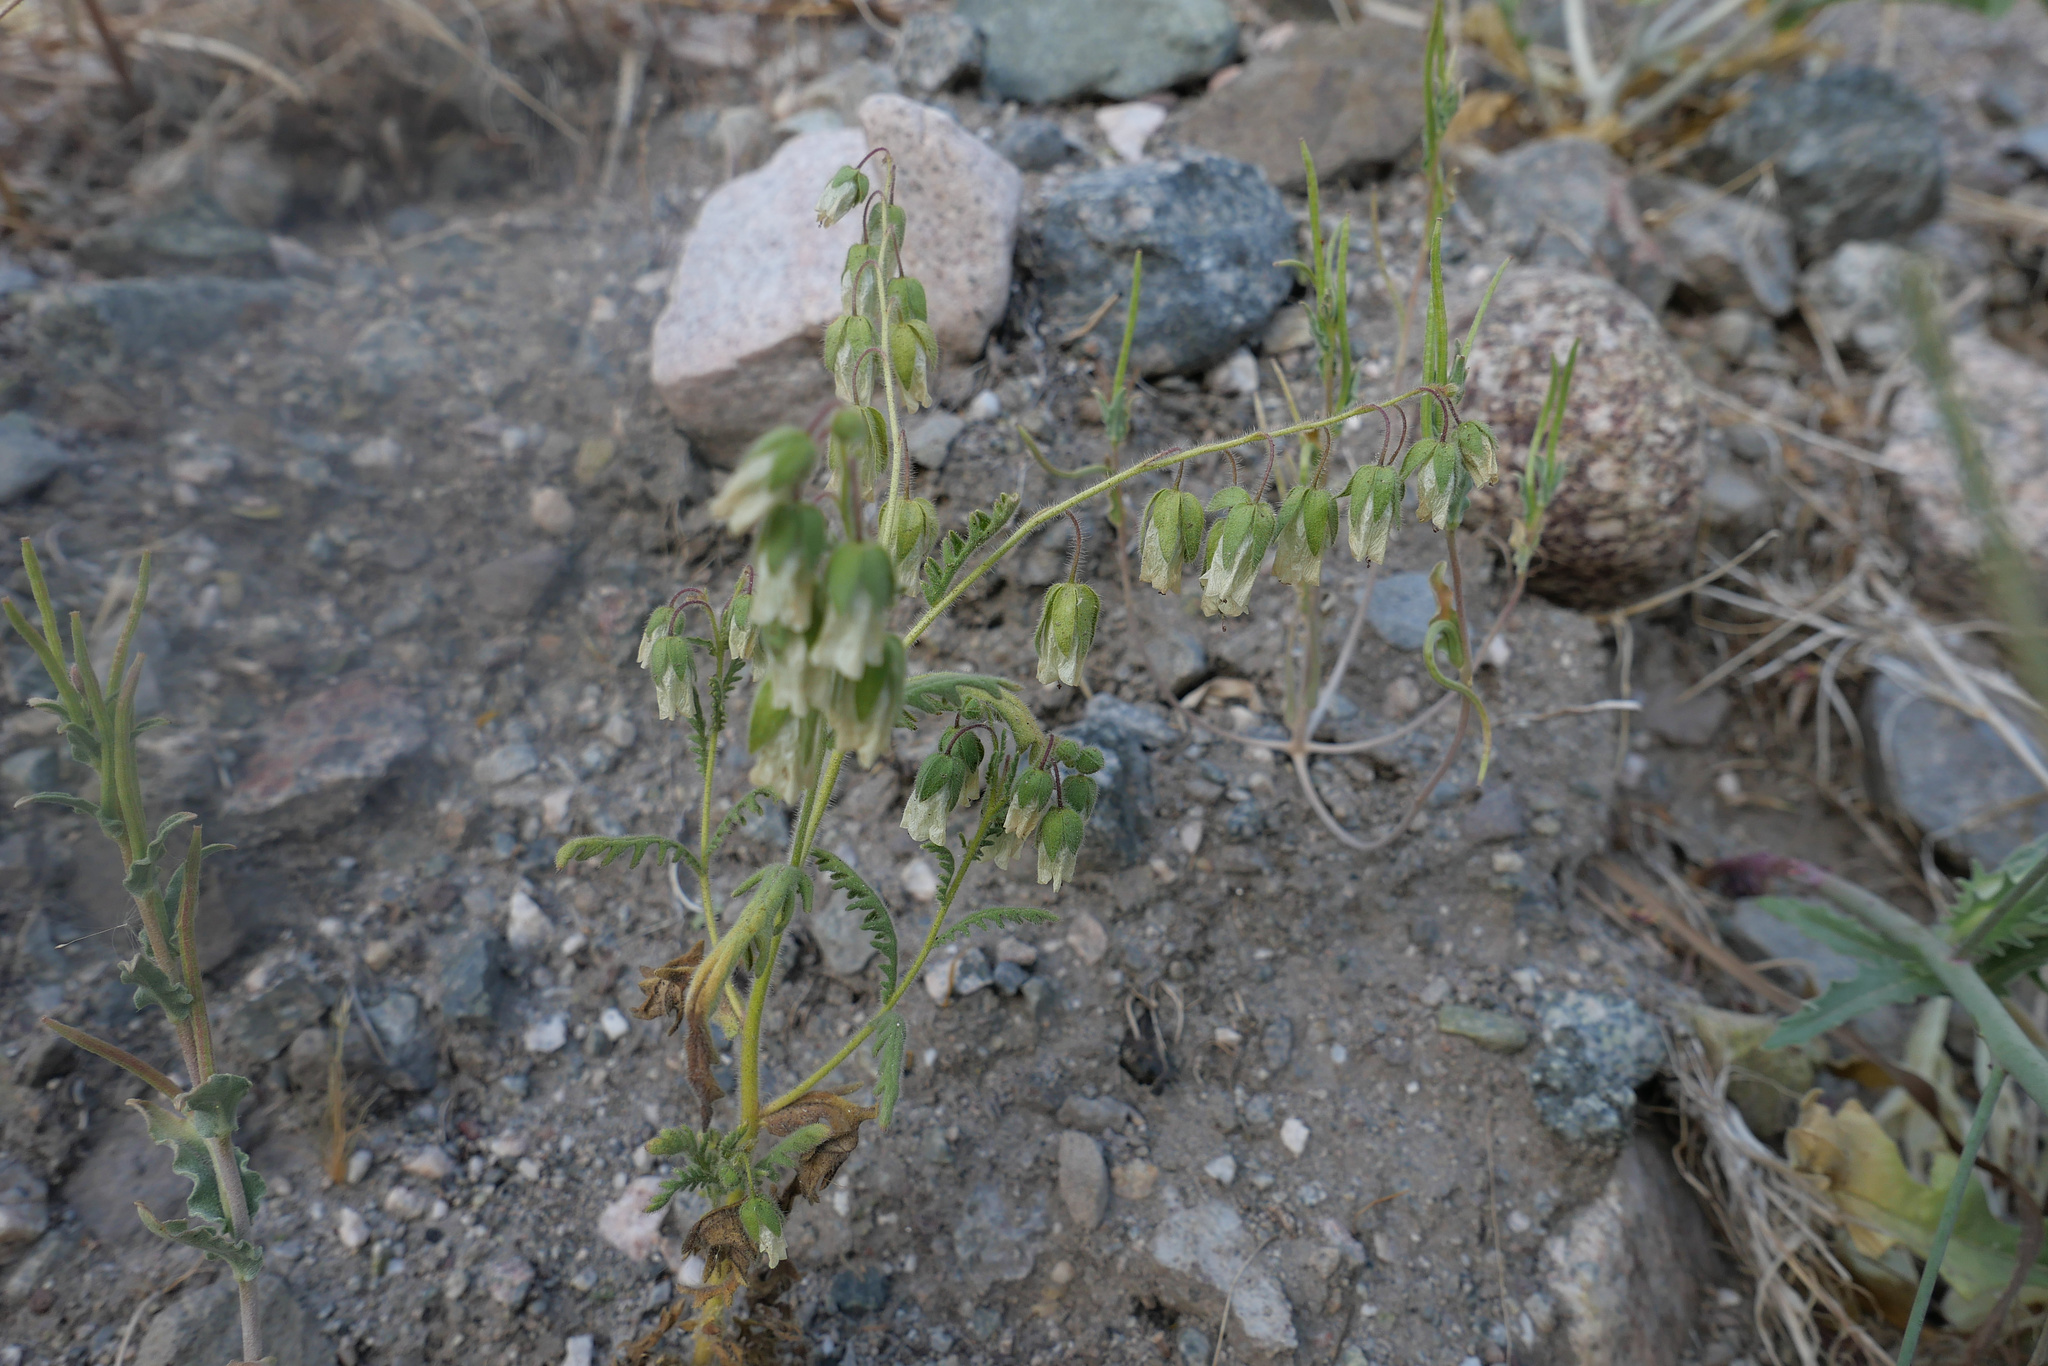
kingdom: Plantae
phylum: Tracheophyta
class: Magnoliopsida
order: Boraginales
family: Hydrophyllaceae
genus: Emmenanthe
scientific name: Emmenanthe penduliflora
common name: Whispering-bells
